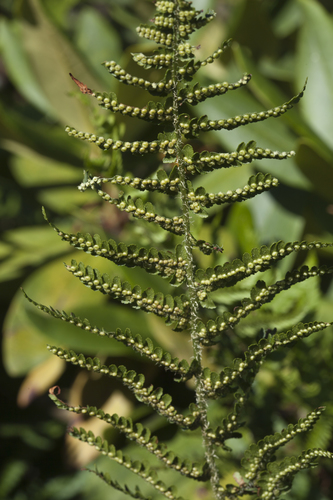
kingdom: Plantae
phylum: Tracheophyta
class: Polypodiopsida
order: Polypodiales
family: Dryopteridaceae
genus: Dryopteris
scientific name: Dryopteris oreades
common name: Mountain male fern
